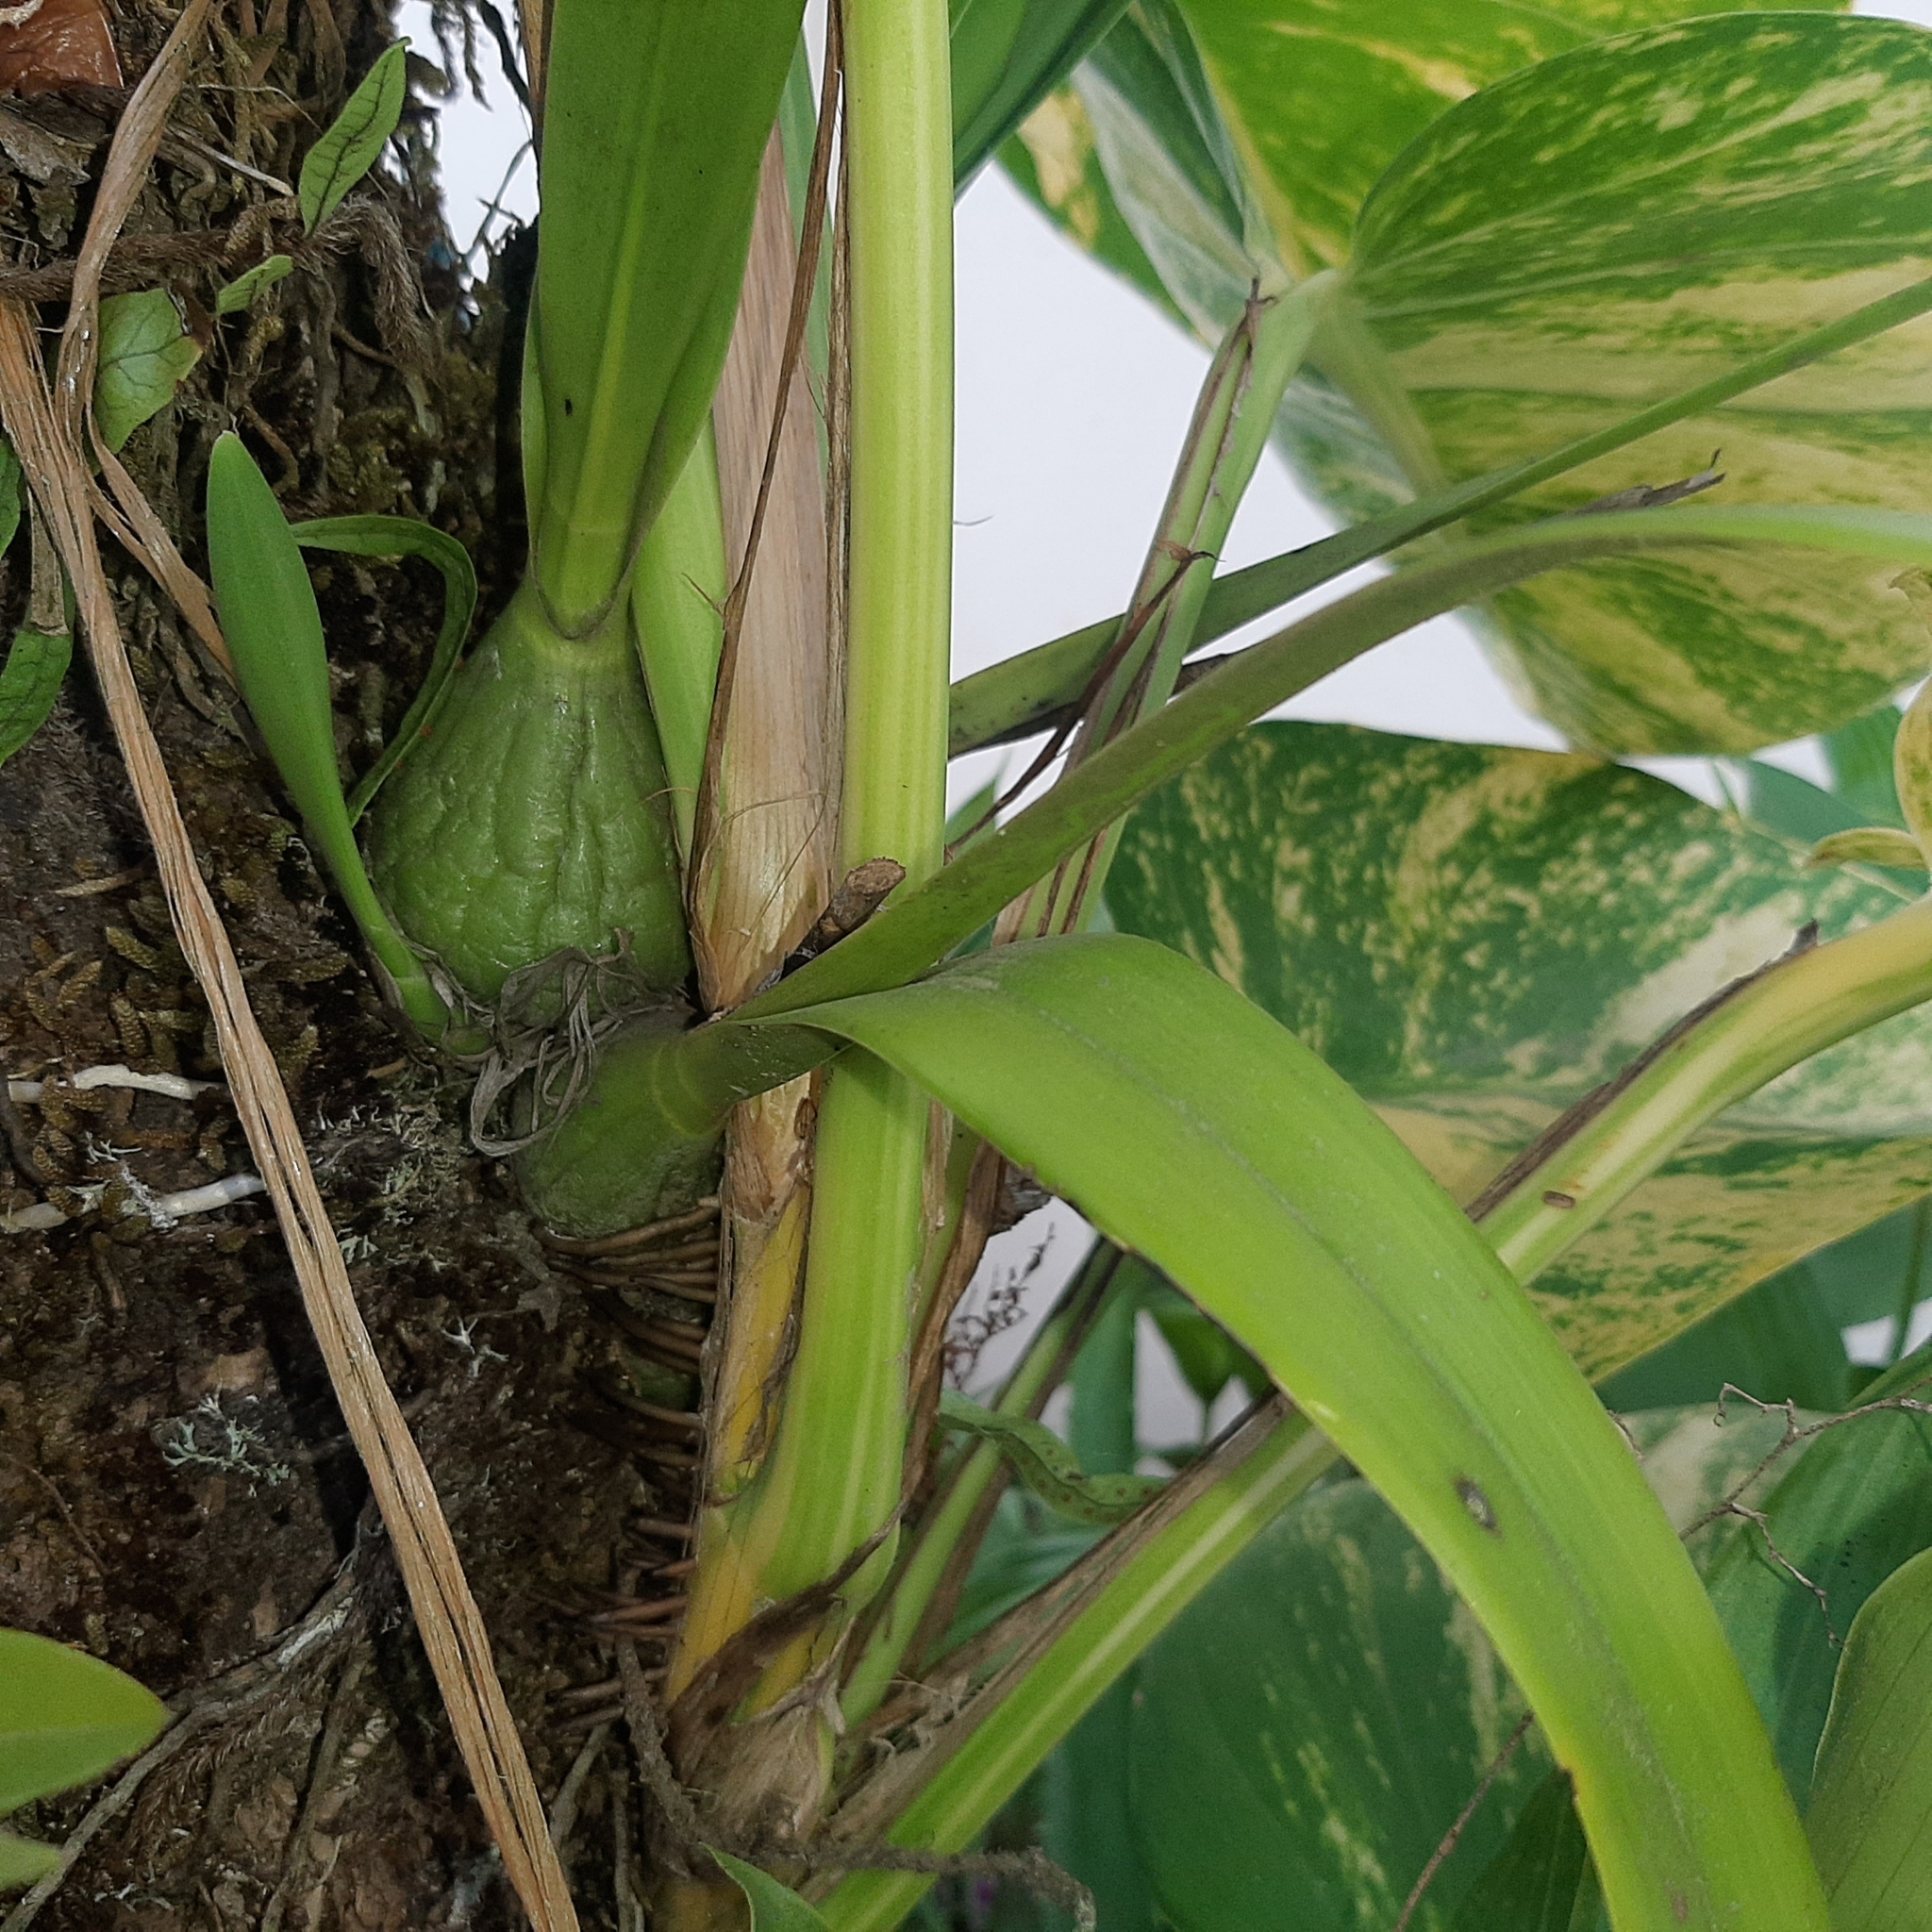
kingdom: Plantae
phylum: Tracheophyta
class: Liliopsida
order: Asparagales
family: Orchidaceae
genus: Encyclia
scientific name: Encyclia ceratistes
